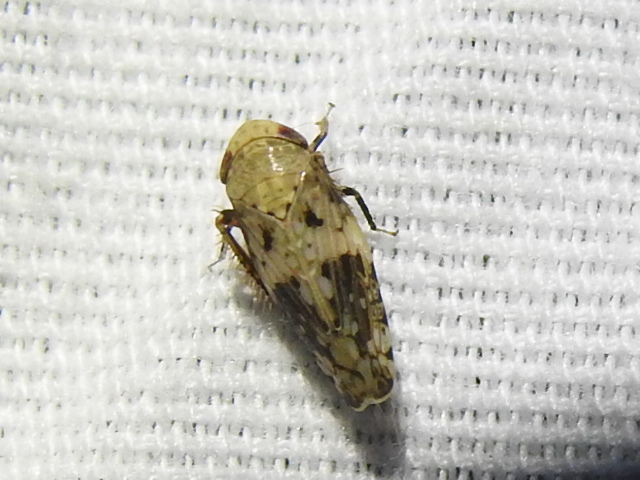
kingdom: Animalia
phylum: Arthropoda
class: Insecta
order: Hemiptera
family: Cicadellidae
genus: Menosoma
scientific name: Menosoma cinctum
